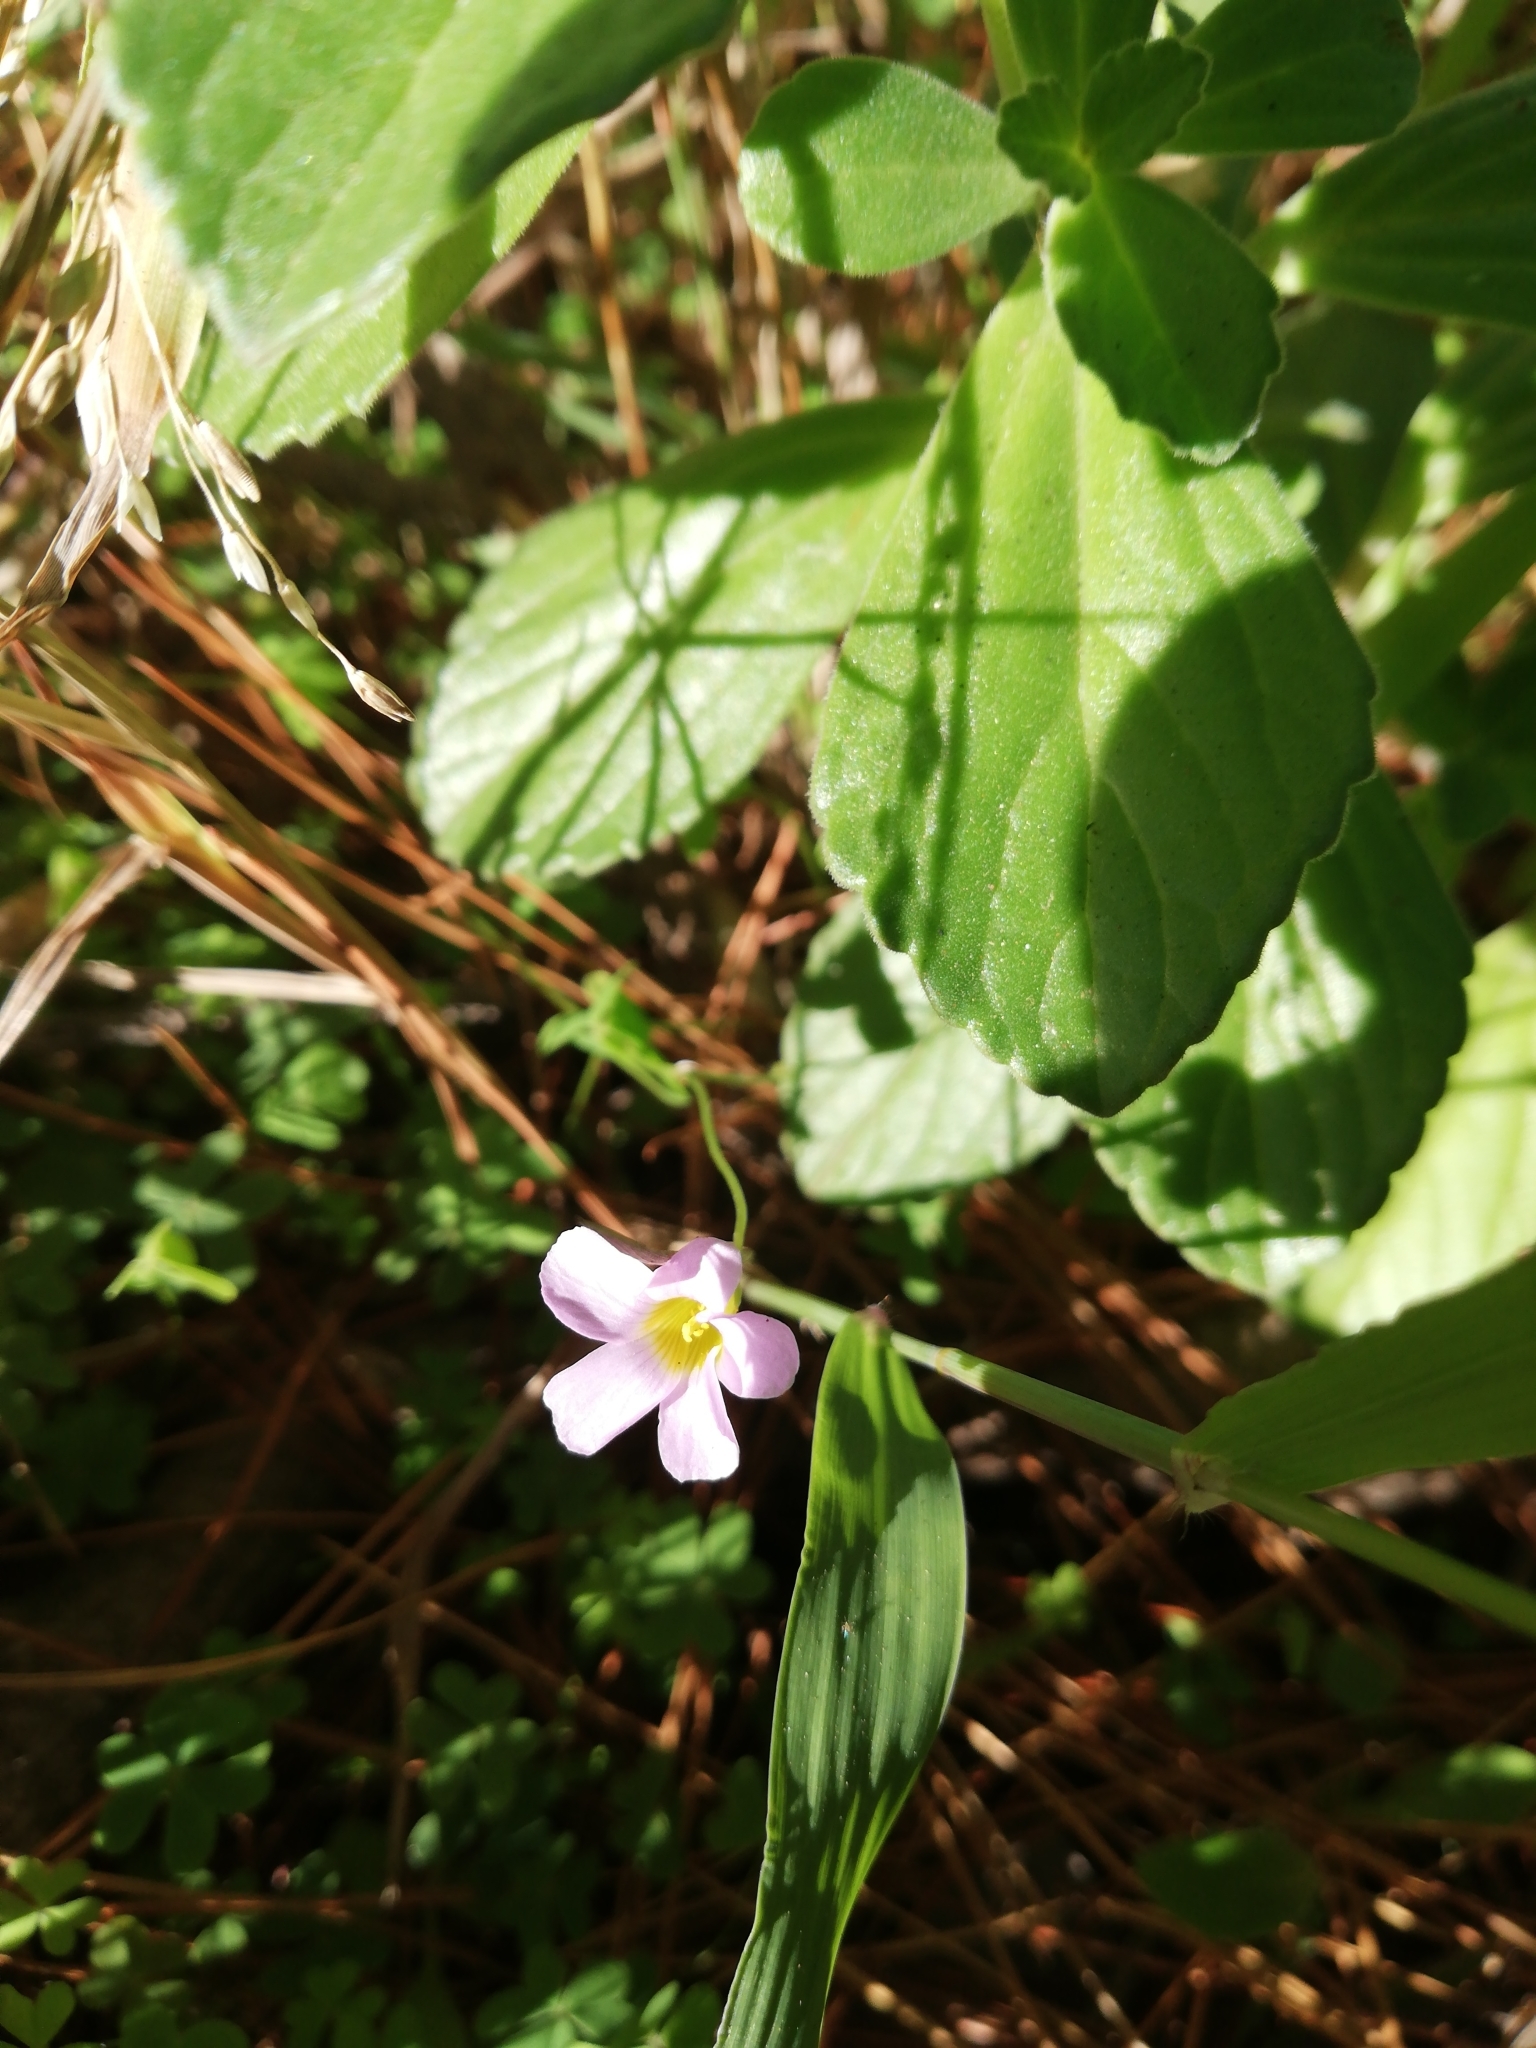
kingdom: Plantae
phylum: Tracheophyta
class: Magnoliopsida
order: Oxalidales
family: Oxalidaceae
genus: Oxalis
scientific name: Oxalis caprina
